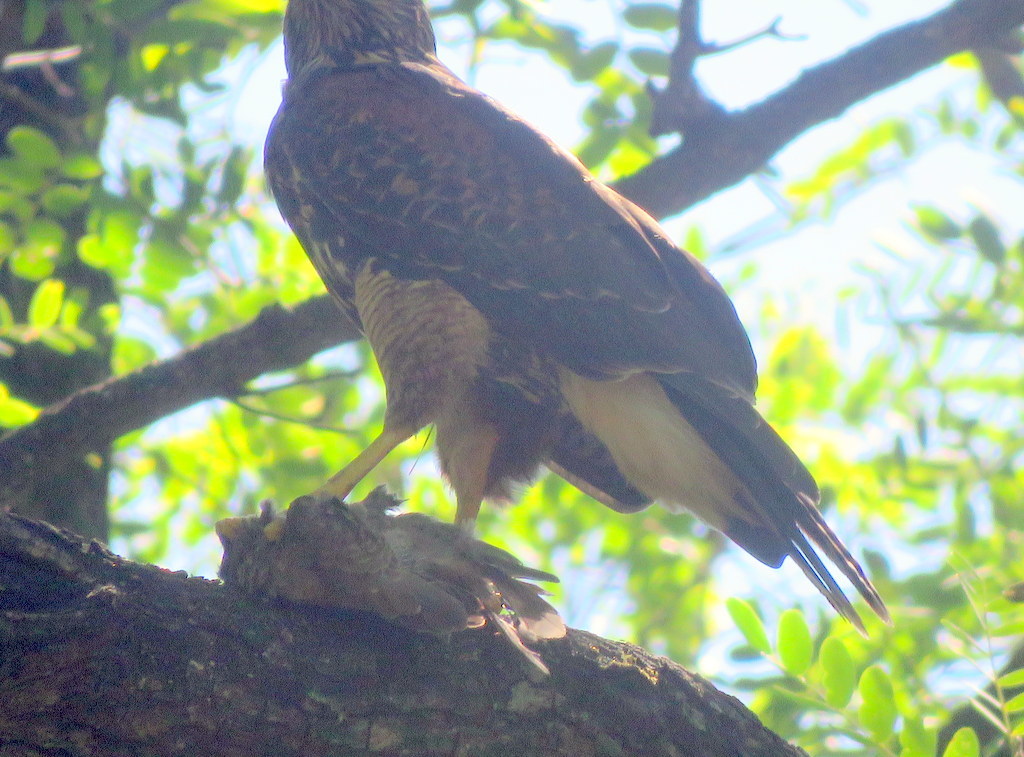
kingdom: Animalia
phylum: Chordata
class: Aves
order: Columbiformes
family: Columbidae
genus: Zenaida
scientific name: Zenaida auriculata
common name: Eared dove
